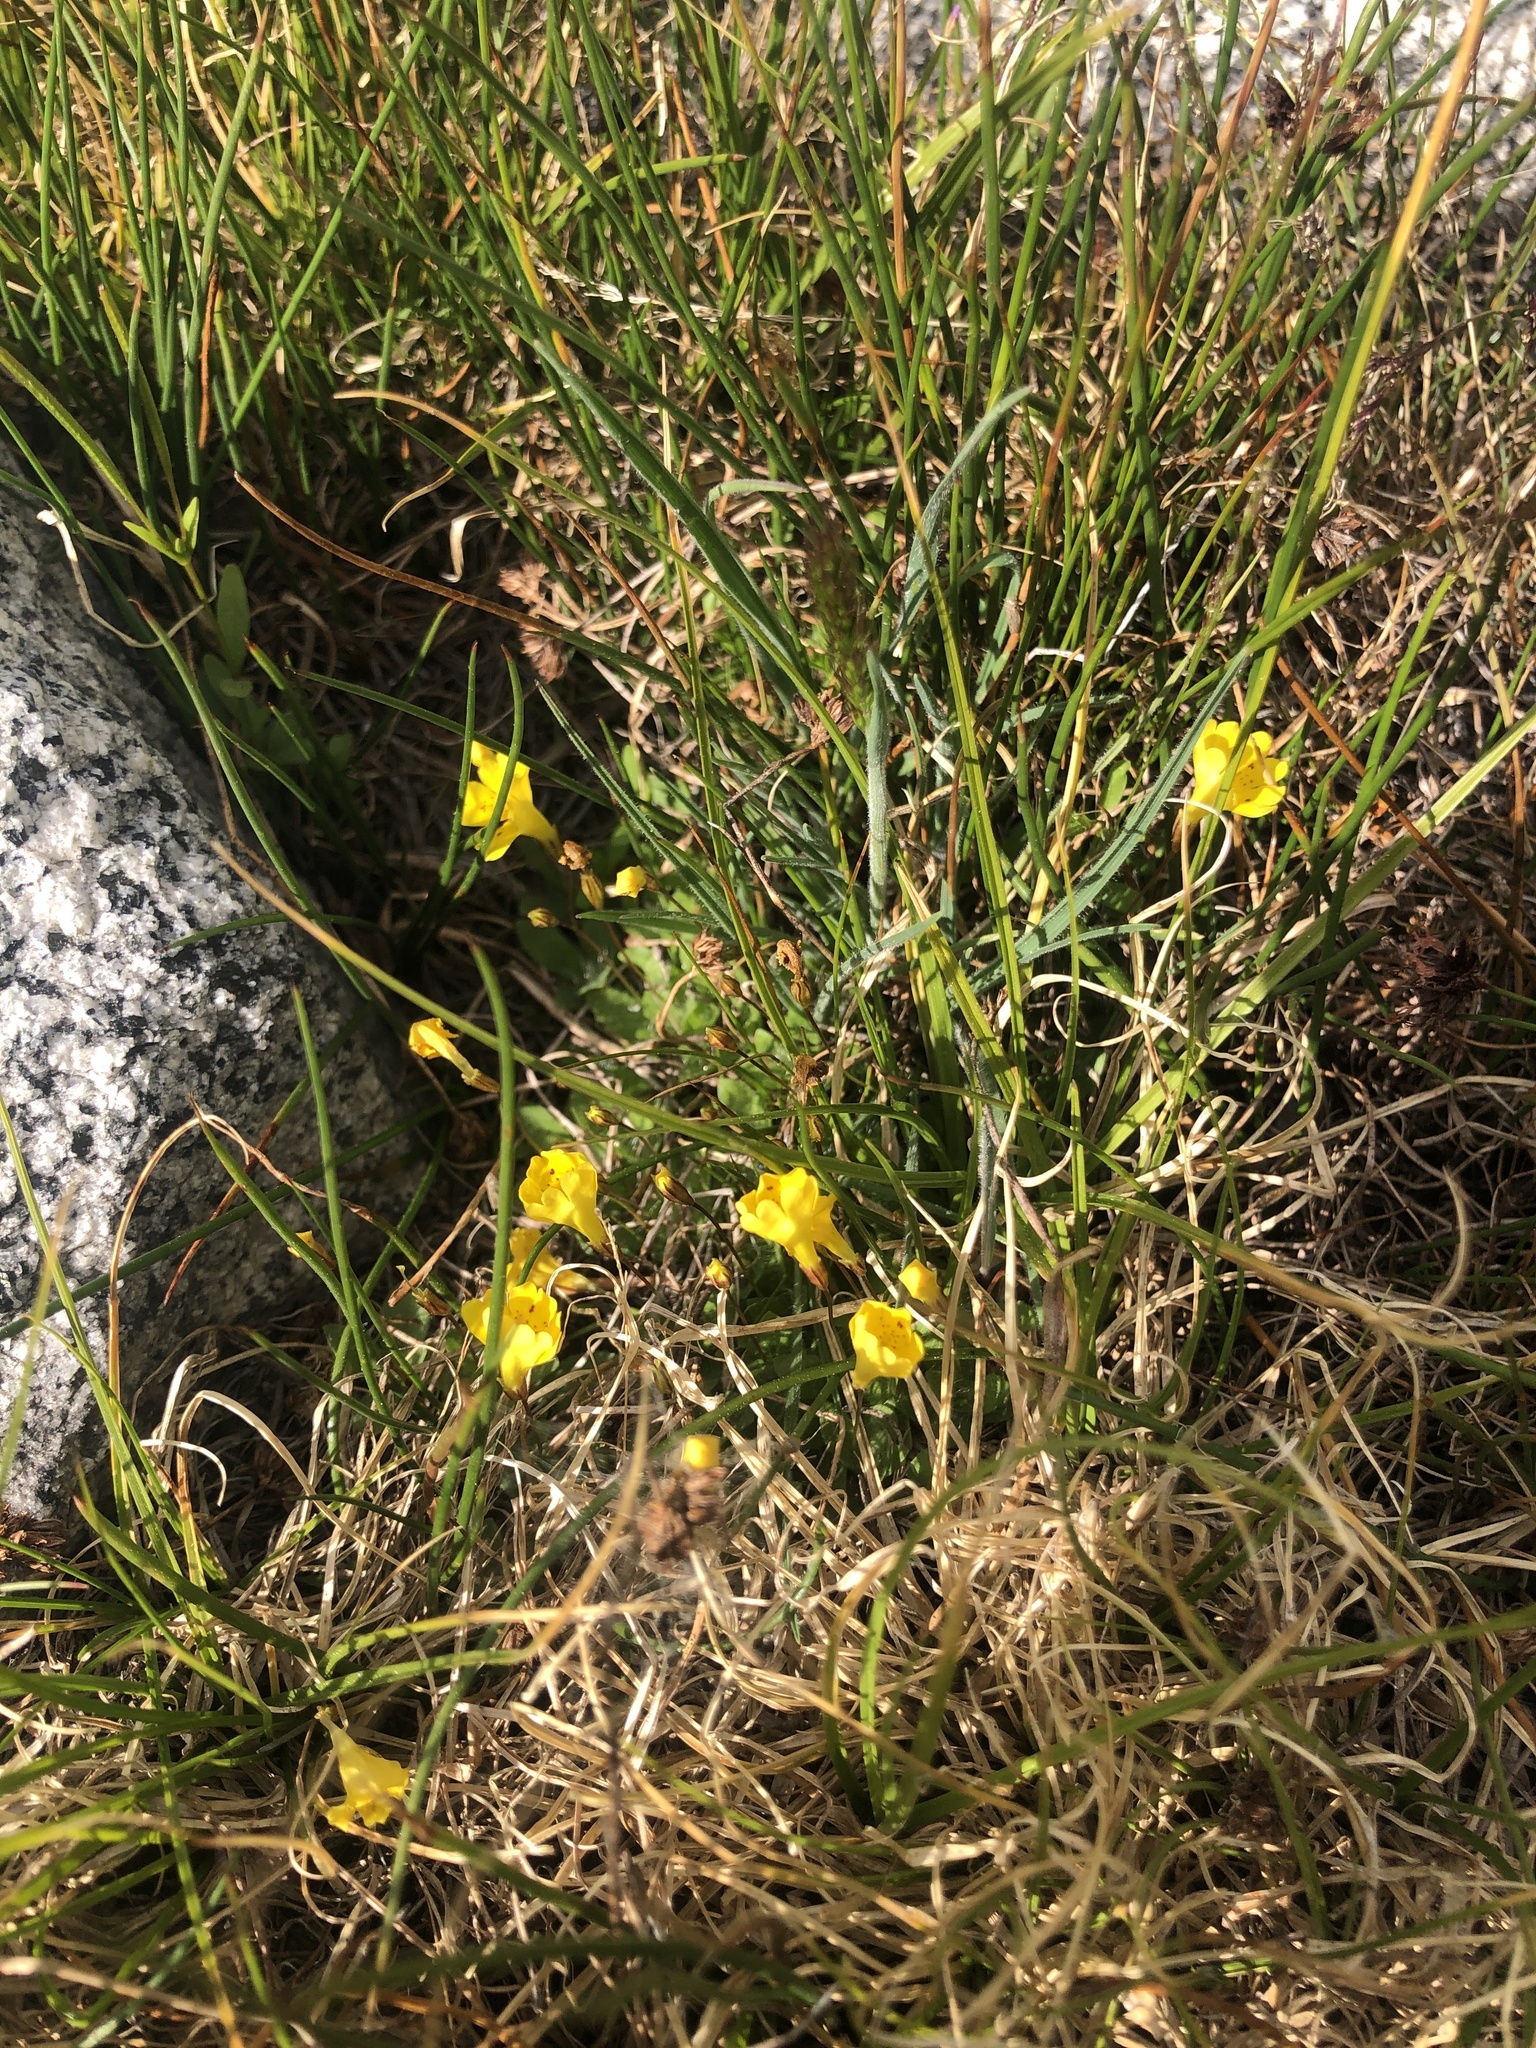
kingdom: Plantae
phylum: Tracheophyta
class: Magnoliopsida
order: Lamiales
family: Phrymaceae
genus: Erythranthe
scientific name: Erythranthe primuloides
